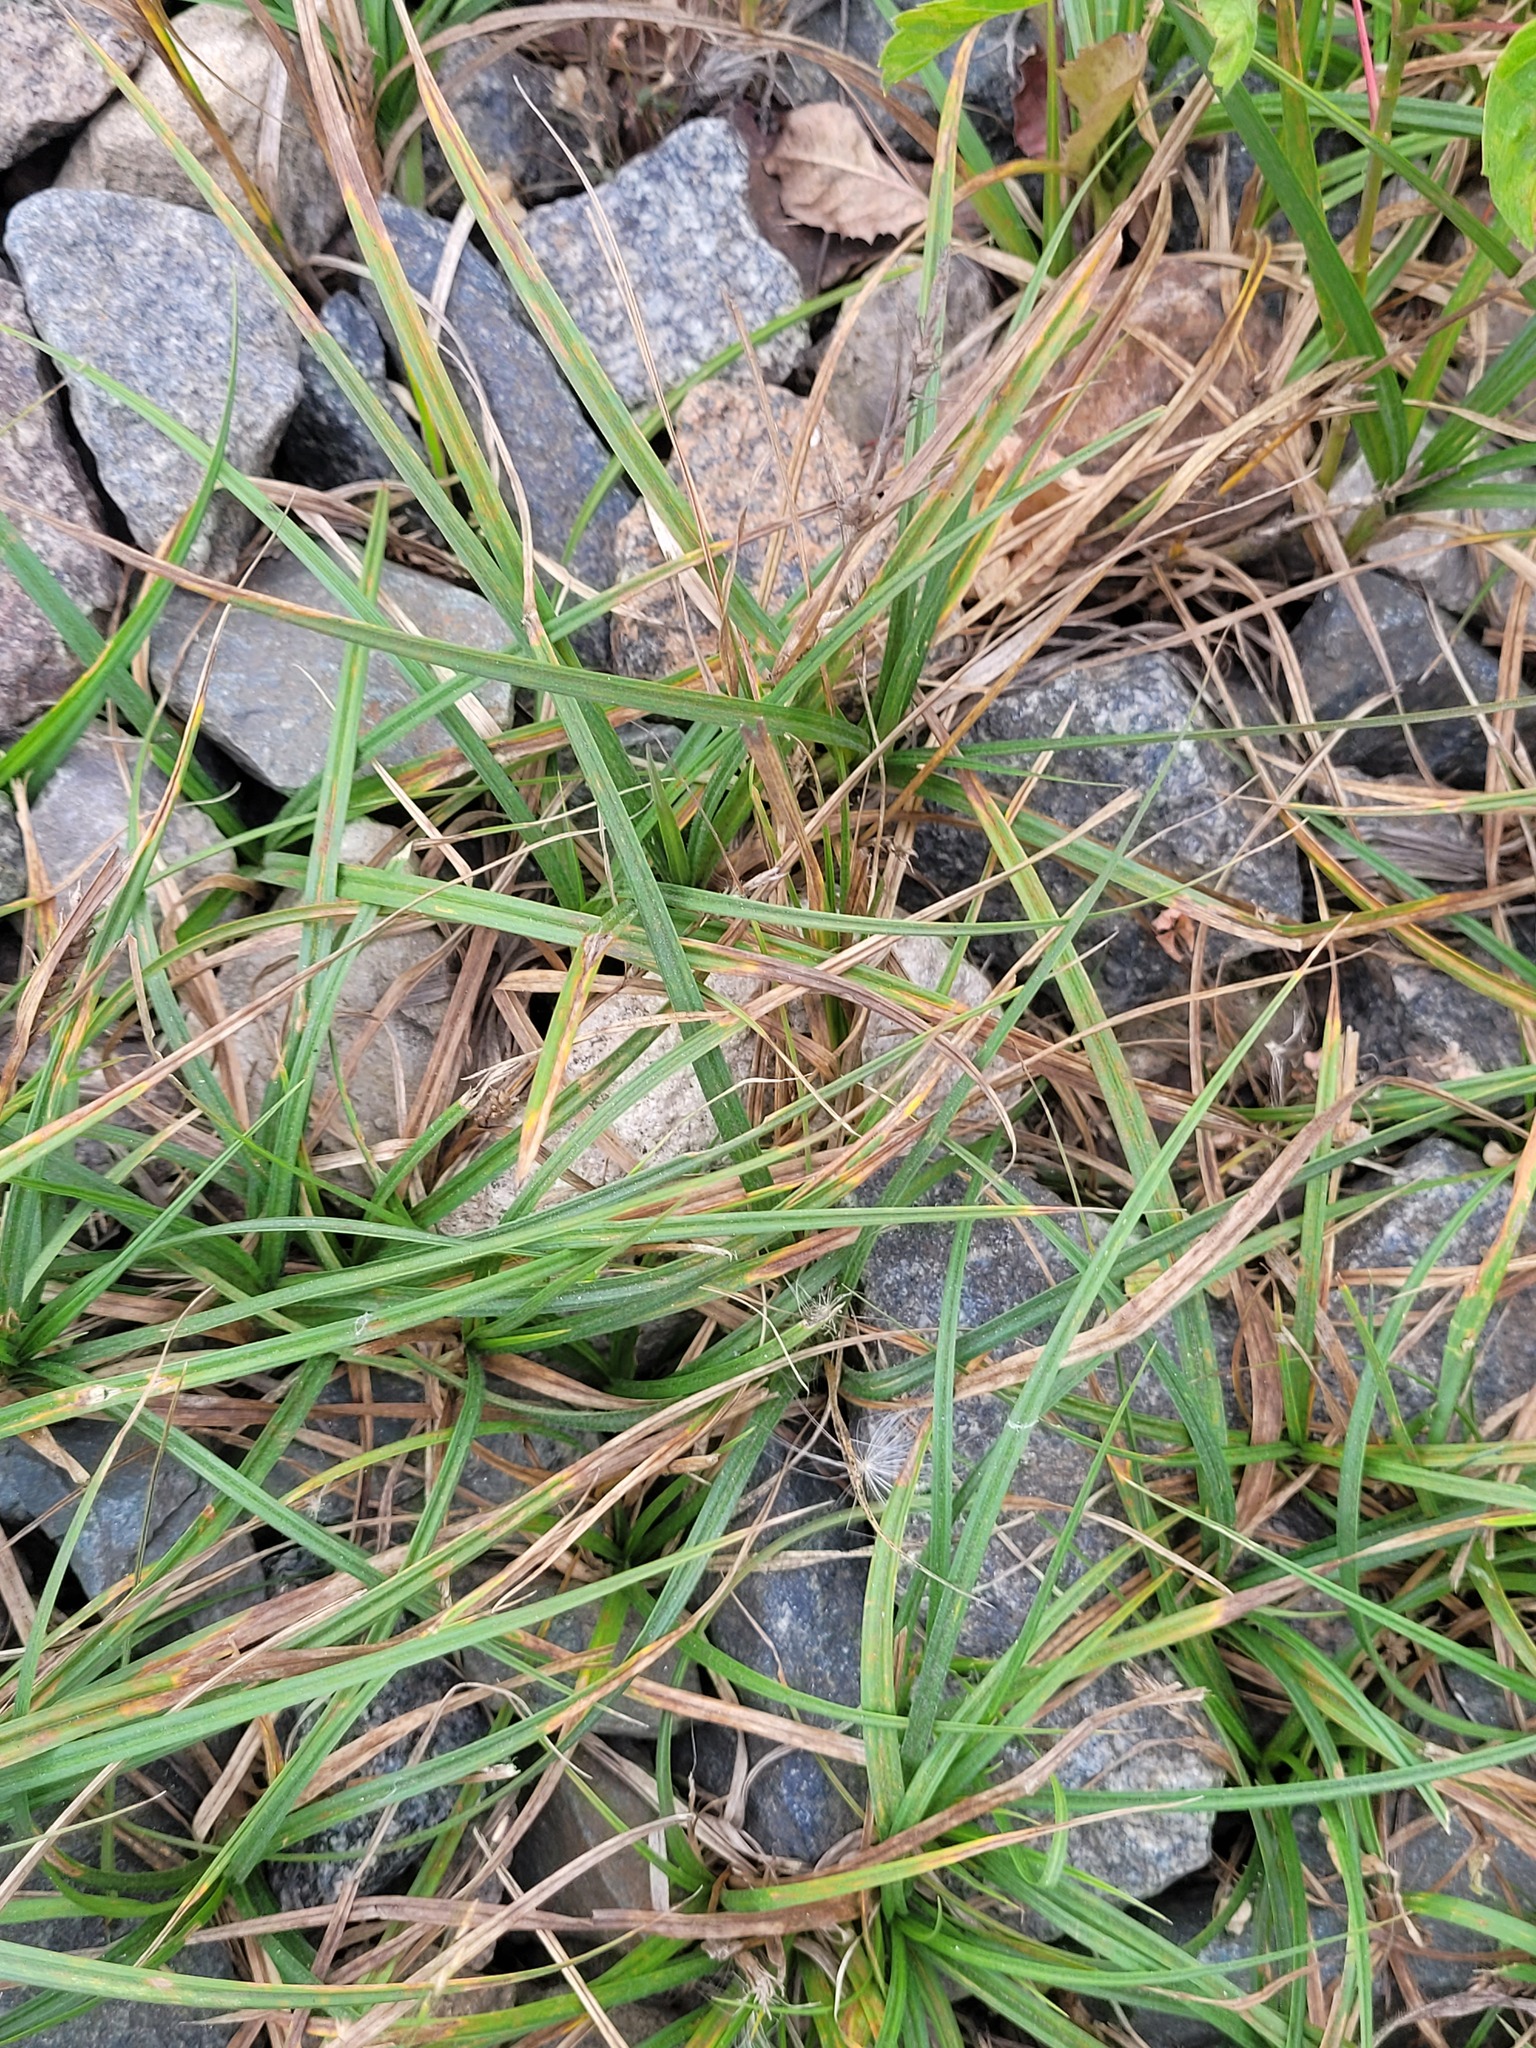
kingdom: Plantae
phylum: Tracheophyta
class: Liliopsida
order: Poales
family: Cyperaceae
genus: Carex
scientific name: Carex hirta
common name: Hairy sedge
